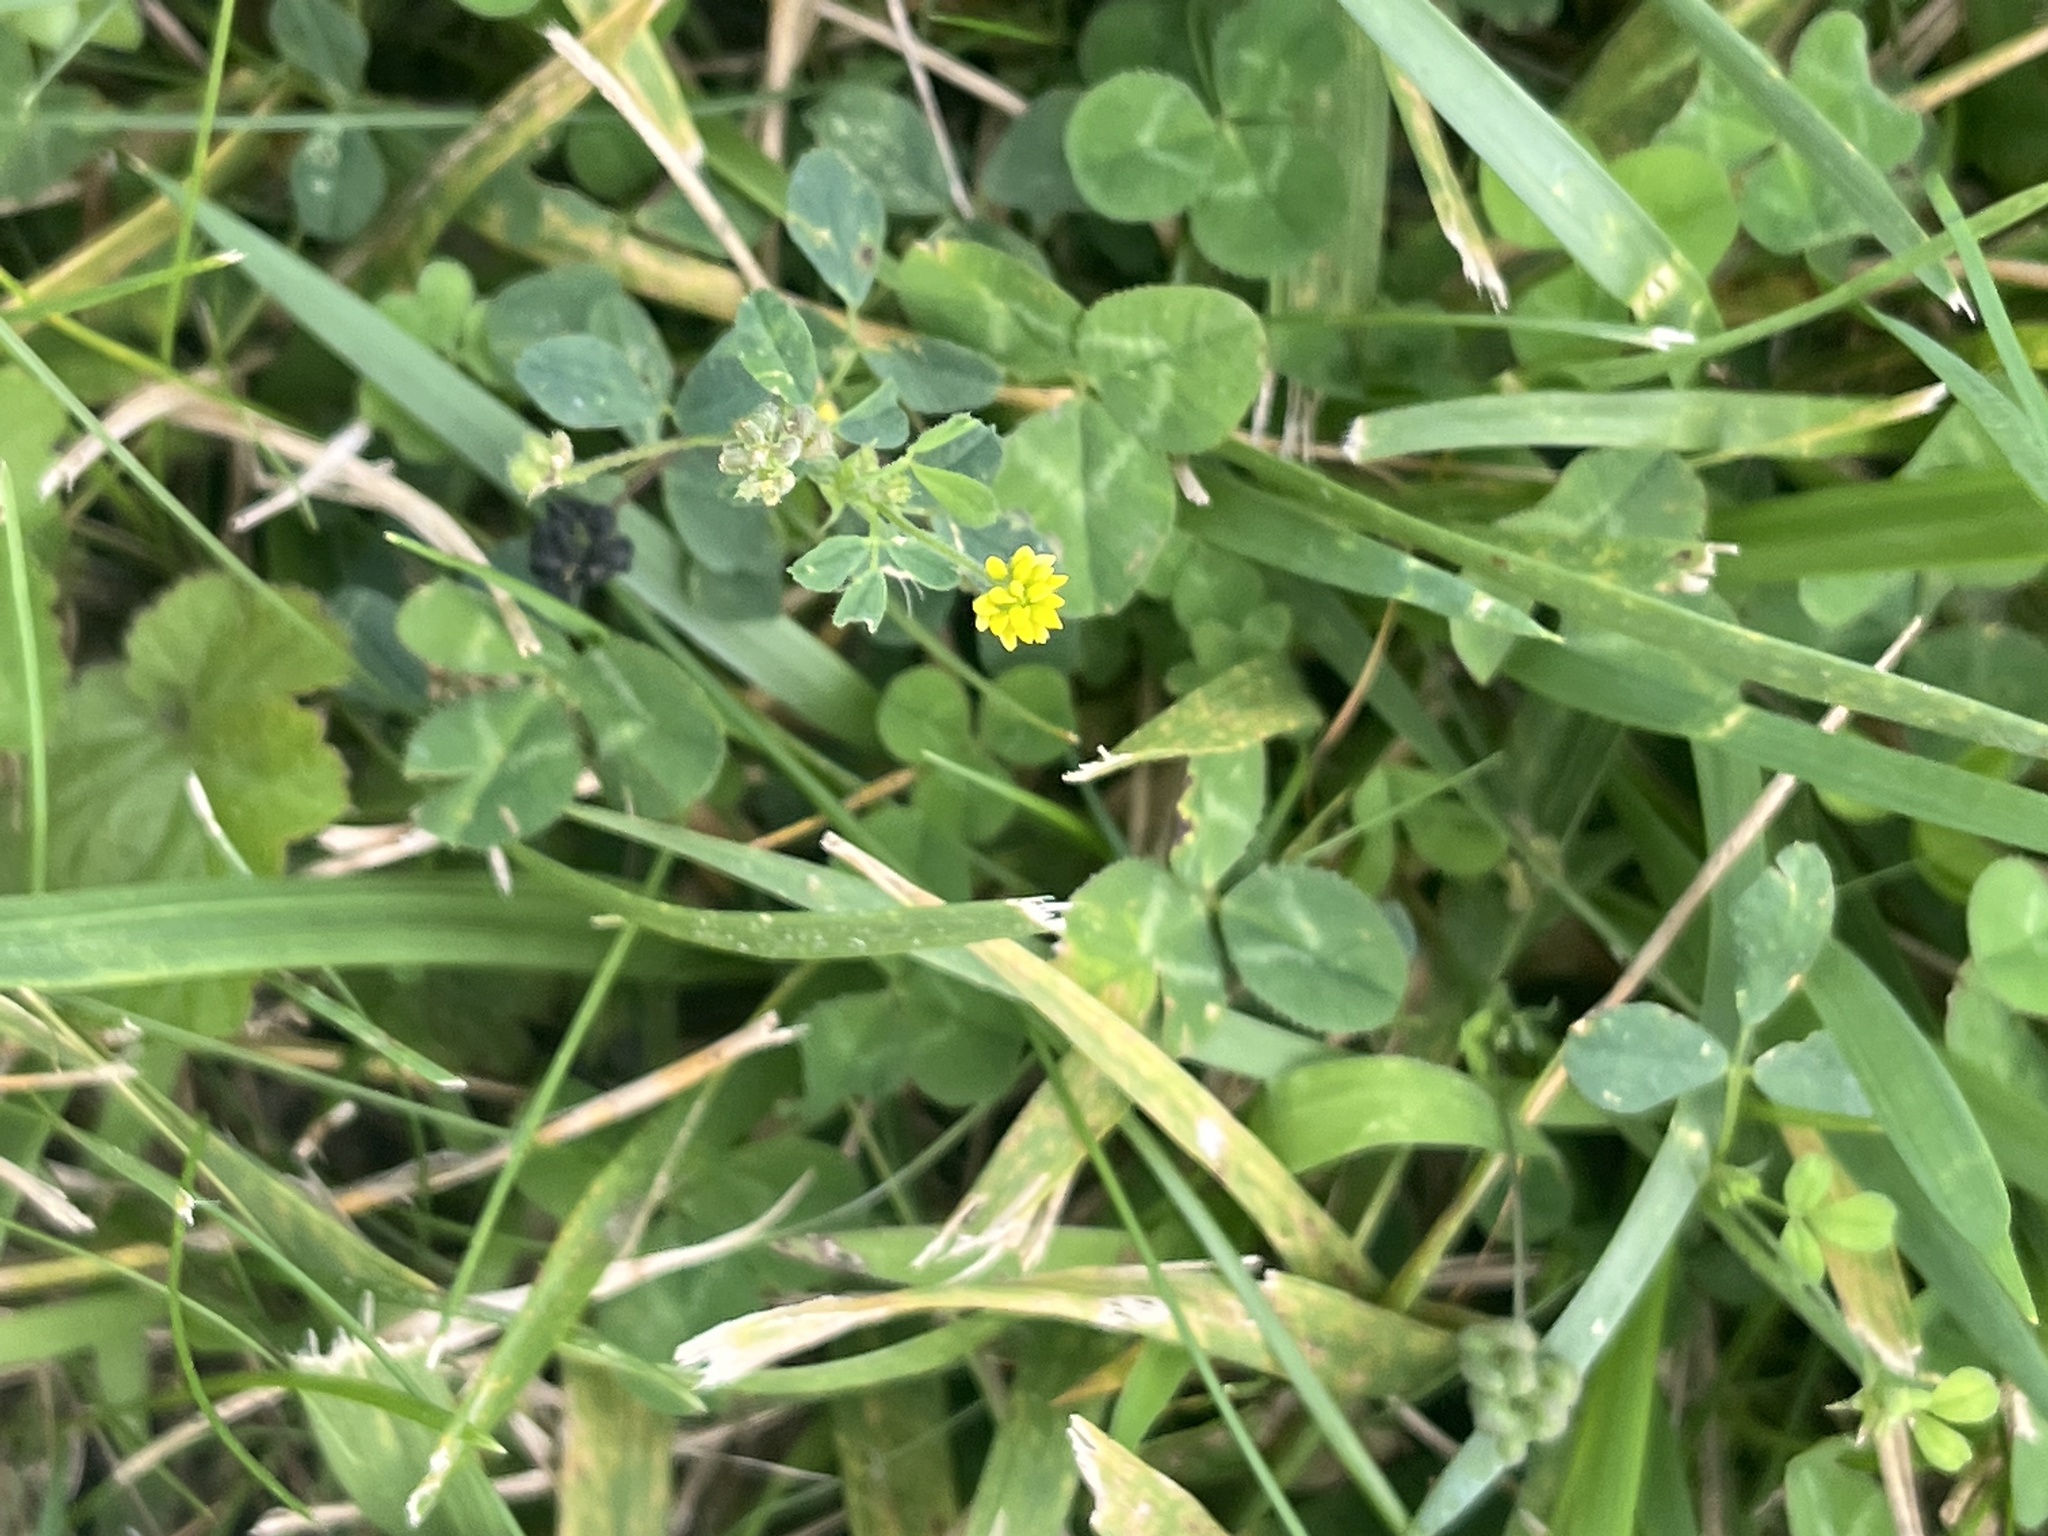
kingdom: Plantae
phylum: Tracheophyta
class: Magnoliopsida
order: Fabales
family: Fabaceae
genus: Medicago
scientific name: Medicago lupulina
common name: Black medick
